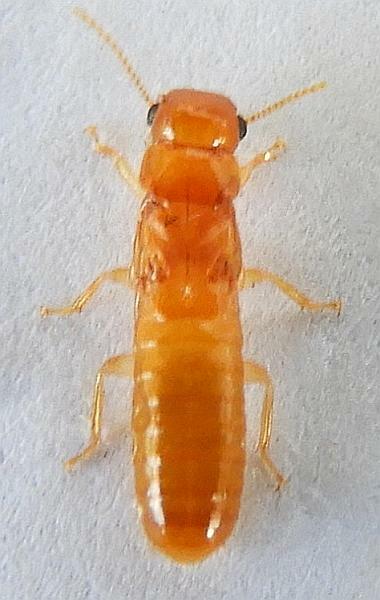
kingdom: Animalia
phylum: Arthropoda
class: Insecta
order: Blattodea
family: Kalotermitidae
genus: Incisitermes
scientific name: Incisitermes snyderi
